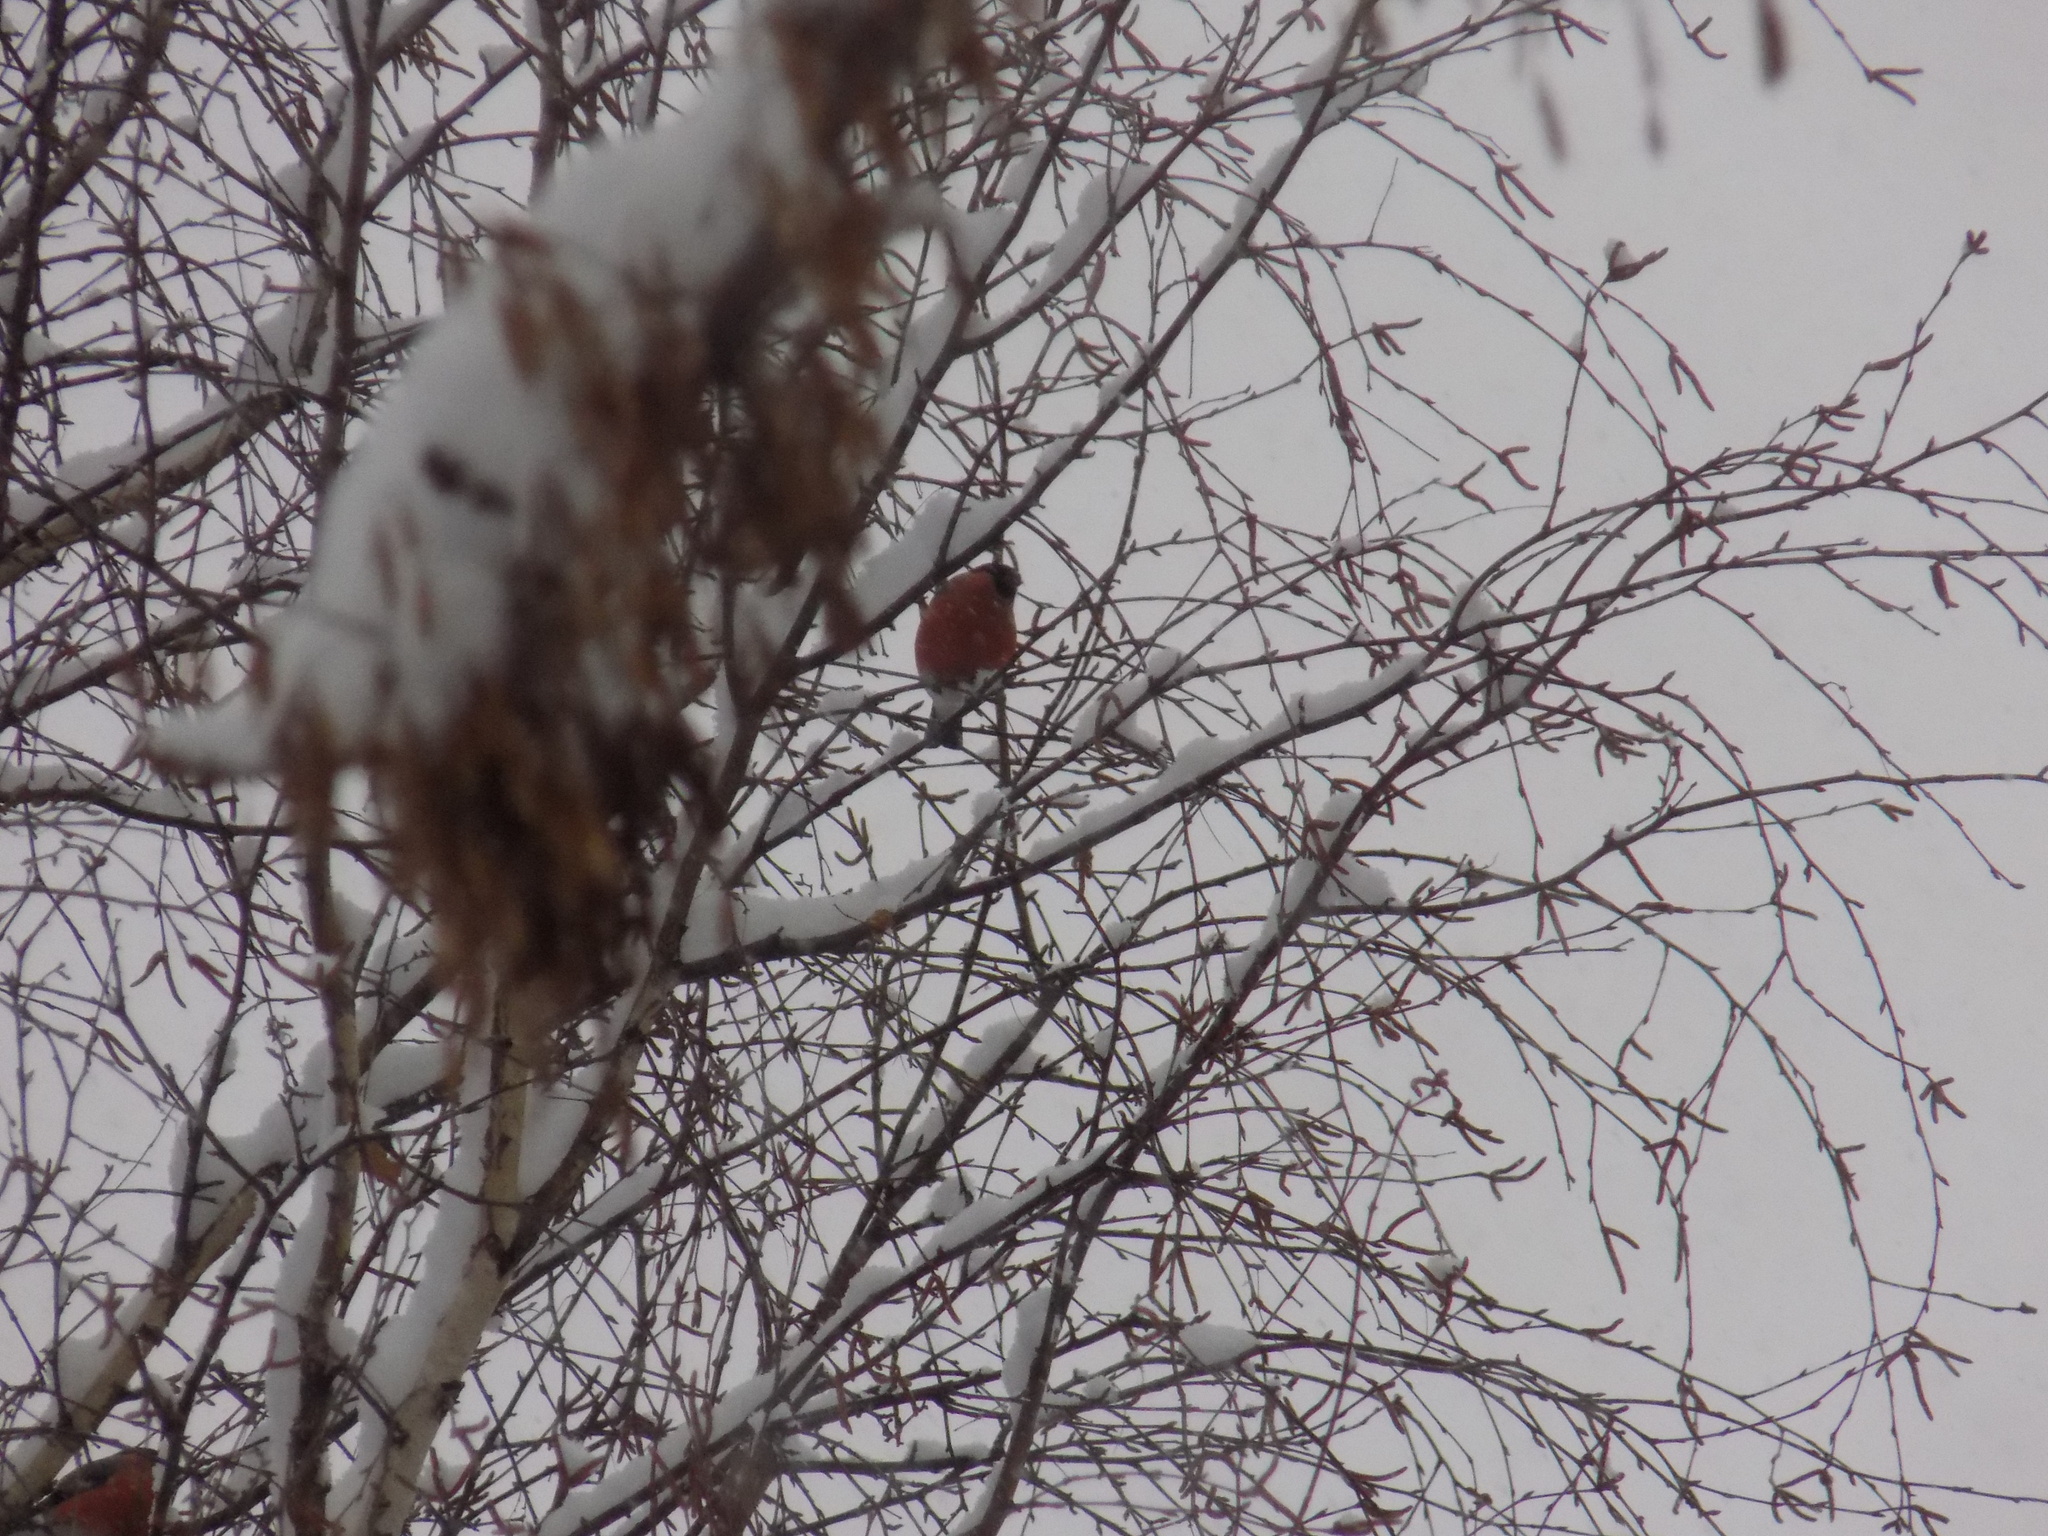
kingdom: Animalia
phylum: Chordata
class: Aves
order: Passeriformes
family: Fringillidae
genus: Pyrrhula
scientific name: Pyrrhula pyrrhula
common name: Eurasian bullfinch
